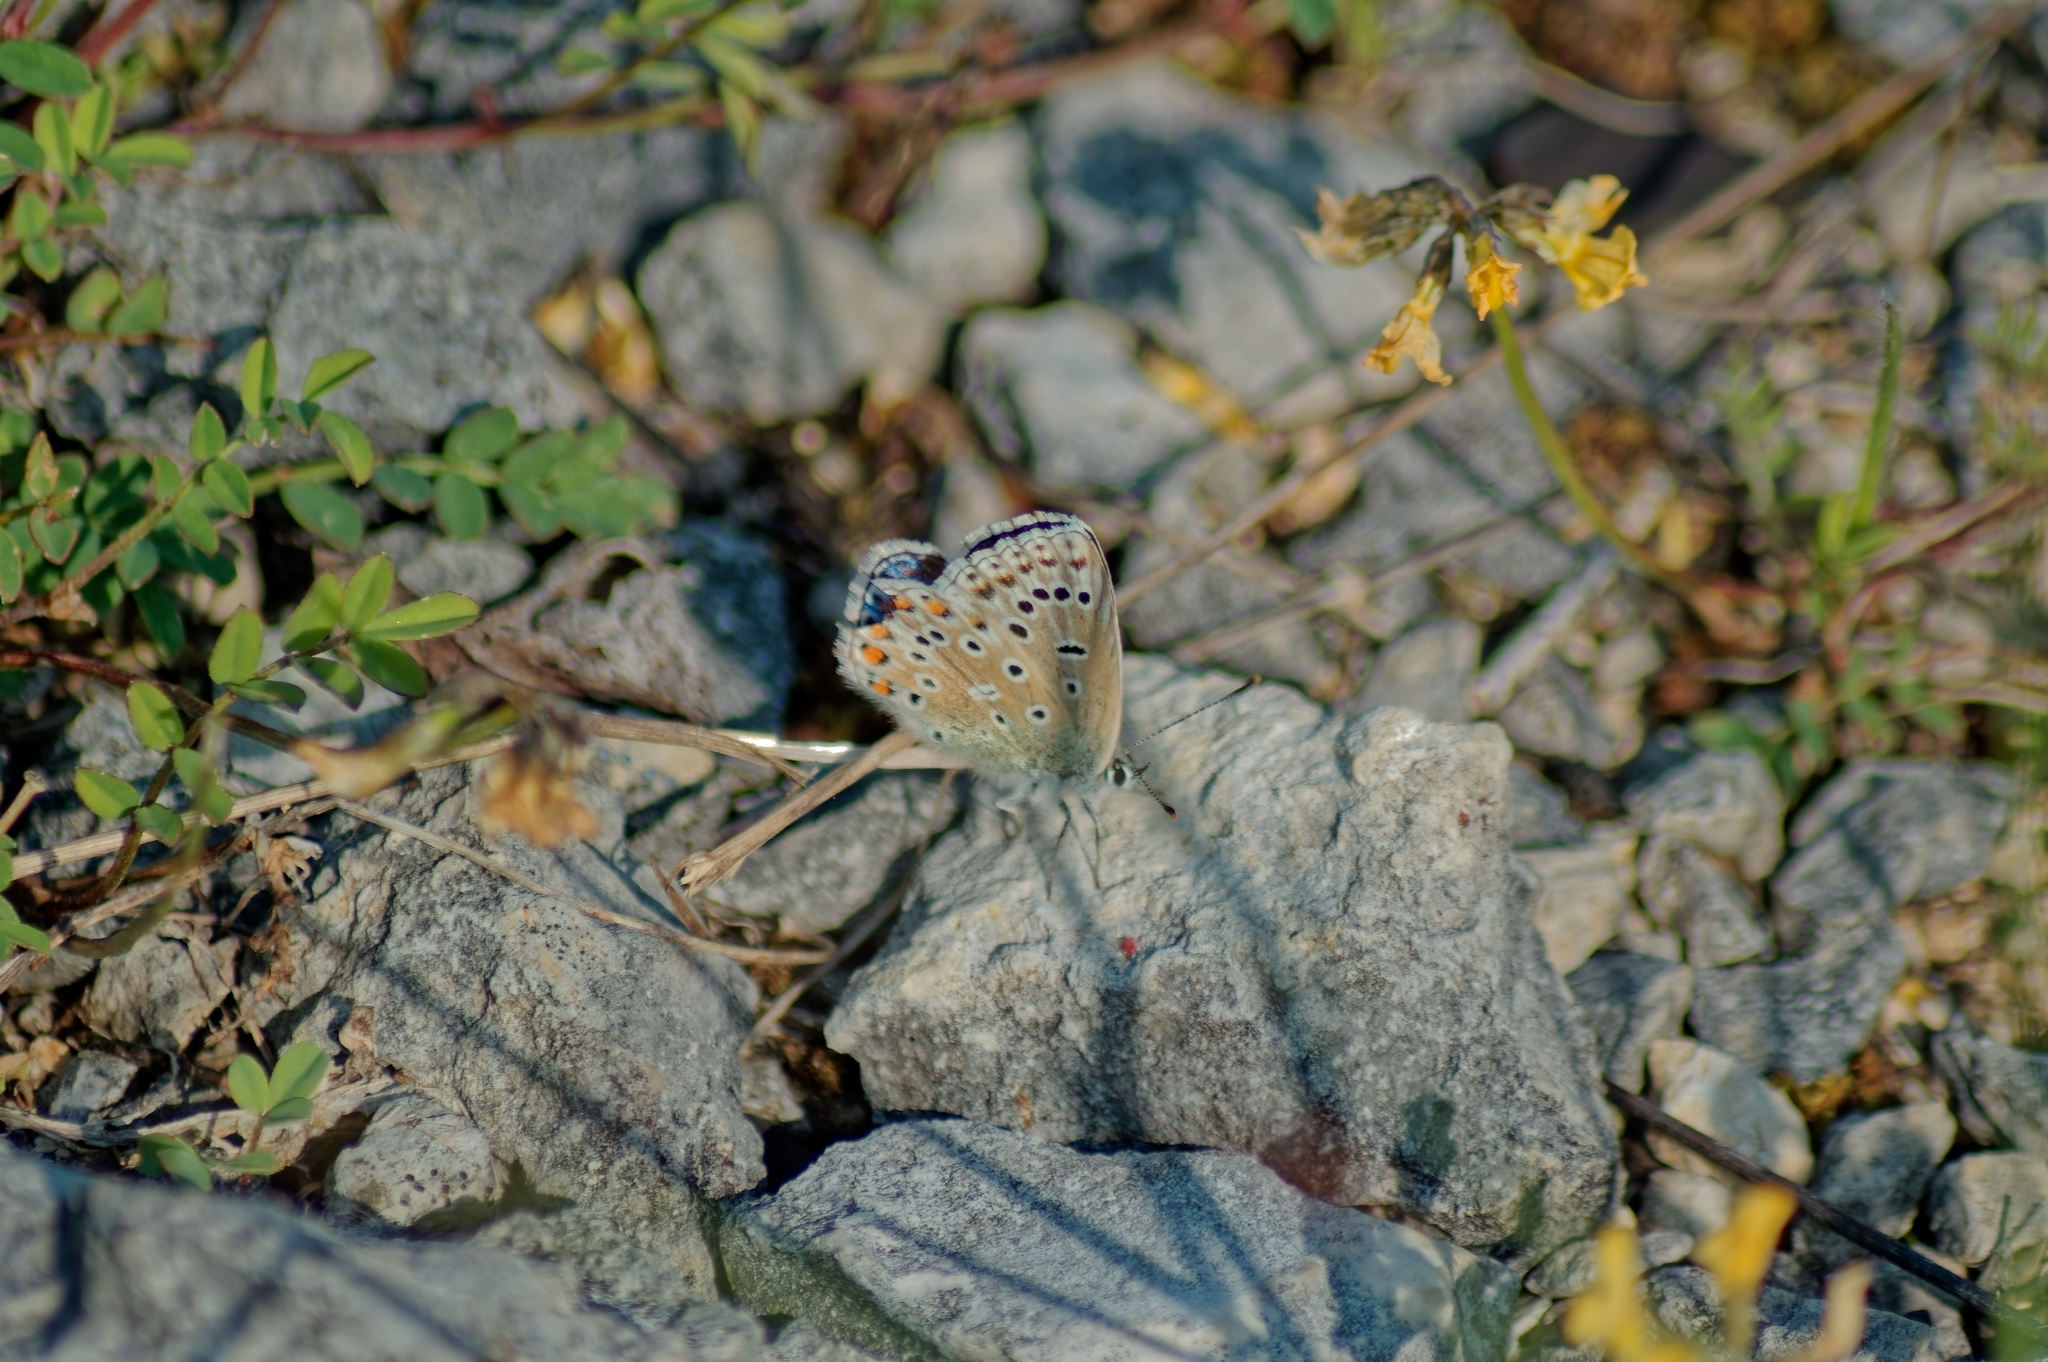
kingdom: Animalia
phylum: Arthropoda
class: Insecta
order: Lepidoptera
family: Lycaenidae
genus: Lysandra
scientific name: Lysandra bellargus
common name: Adonis blue
